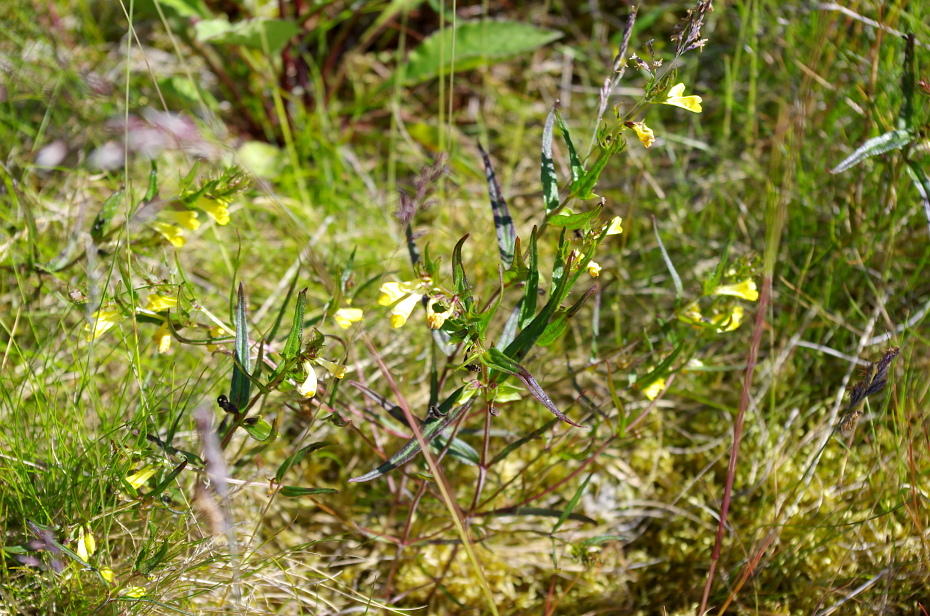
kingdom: Plantae
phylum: Tracheophyta
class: Magnoliopsida
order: Lamiales
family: Orobanchaceae
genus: Melampyrum
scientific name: Melampyrum pratense
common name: Common cow-wheat
